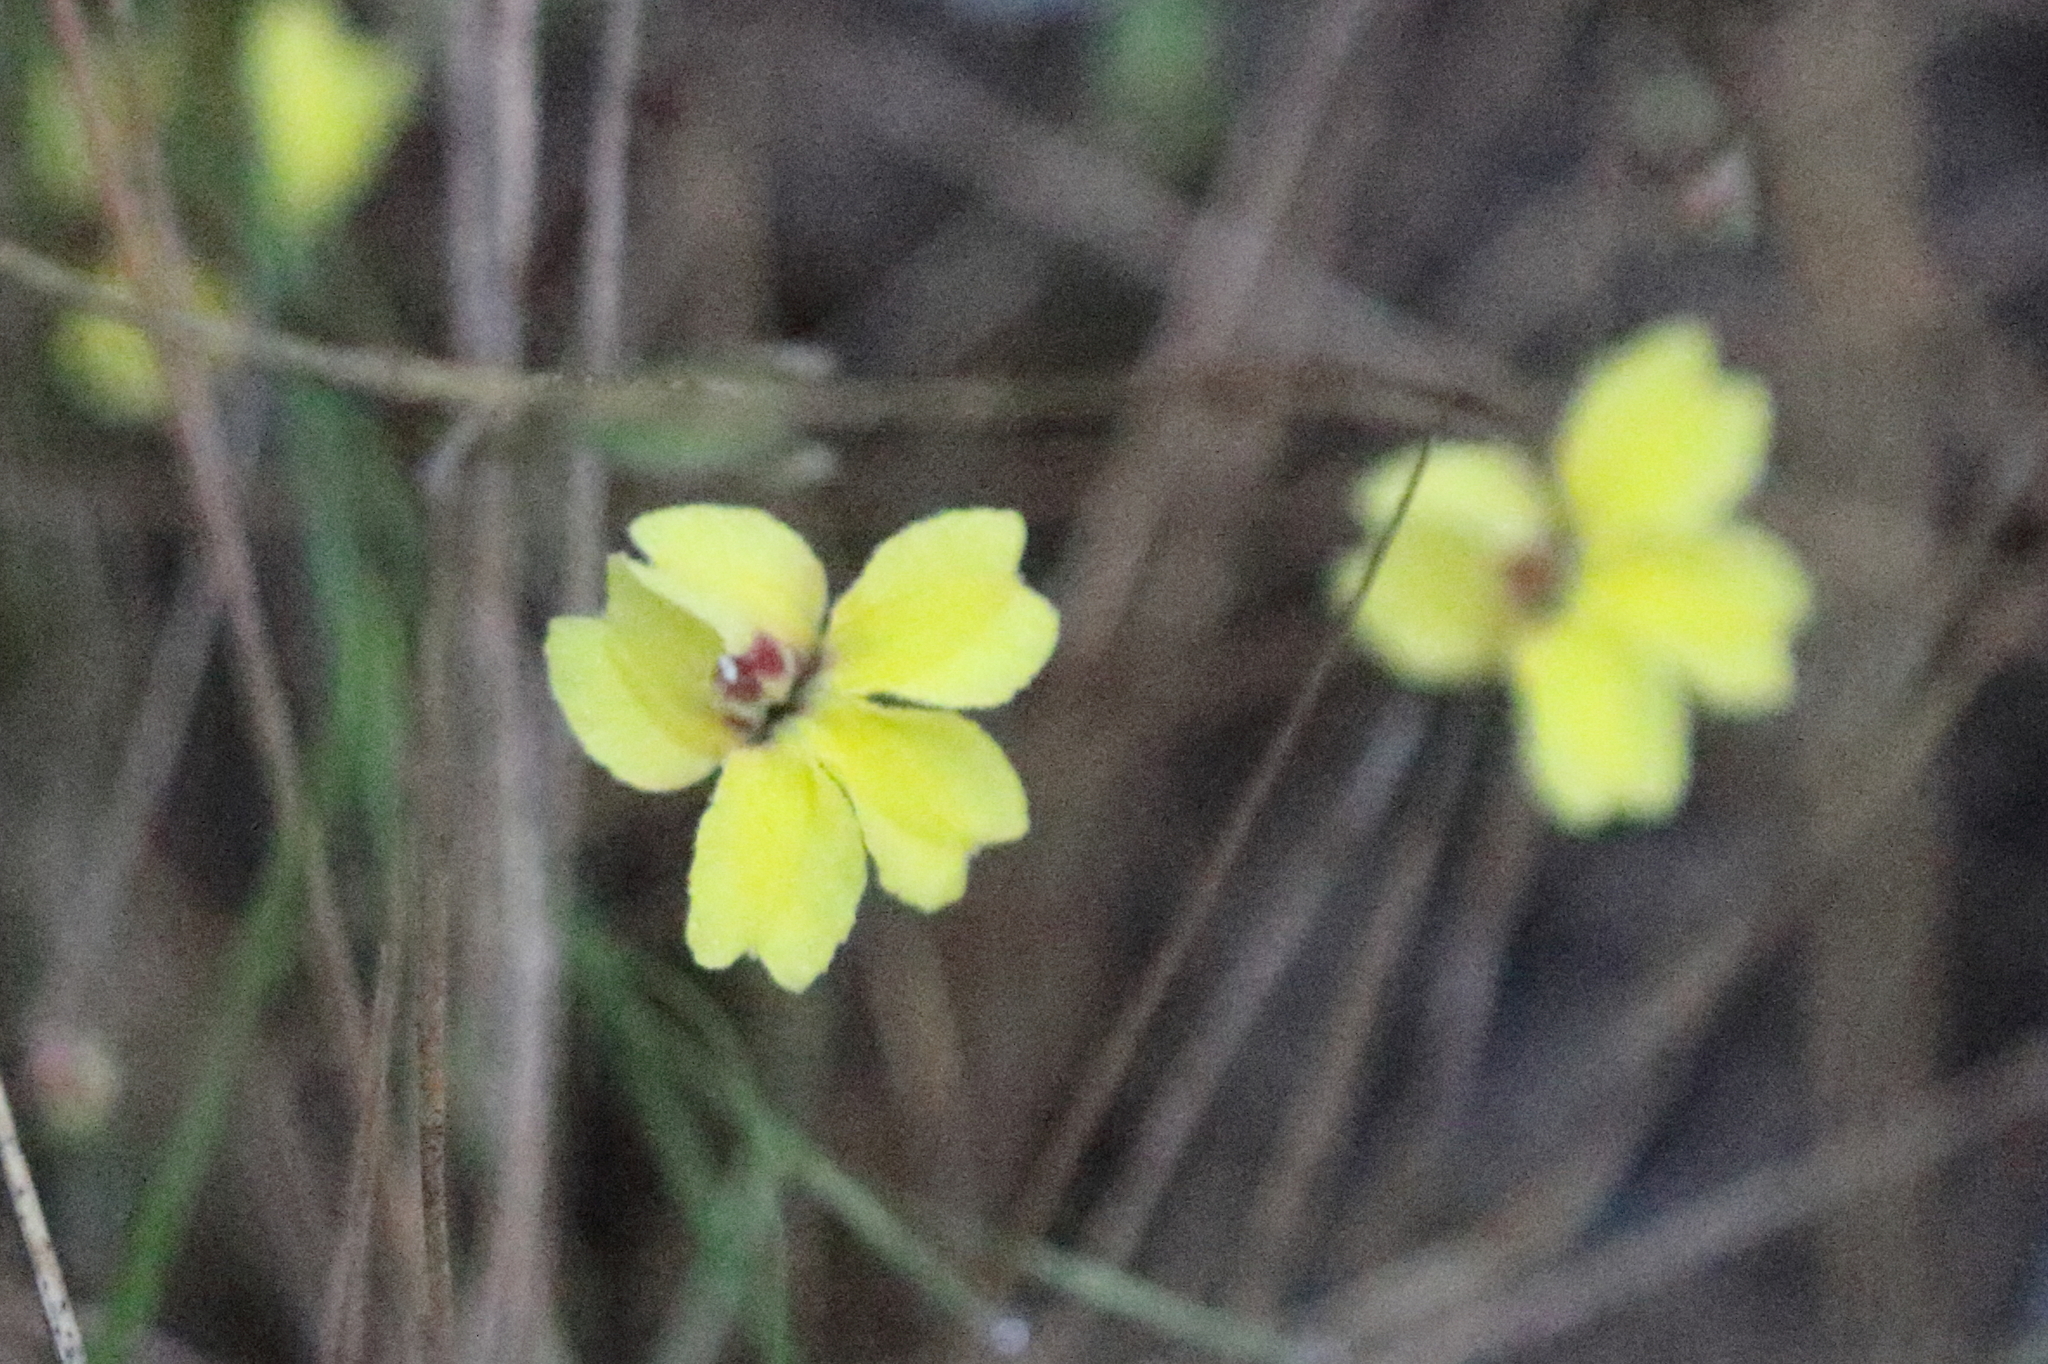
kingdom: Plantae
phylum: Tracheophyta
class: Magnoliopsida
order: Asterales
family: Goodeniaceae
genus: Goodenia
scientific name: Goodenia mystrophylla
